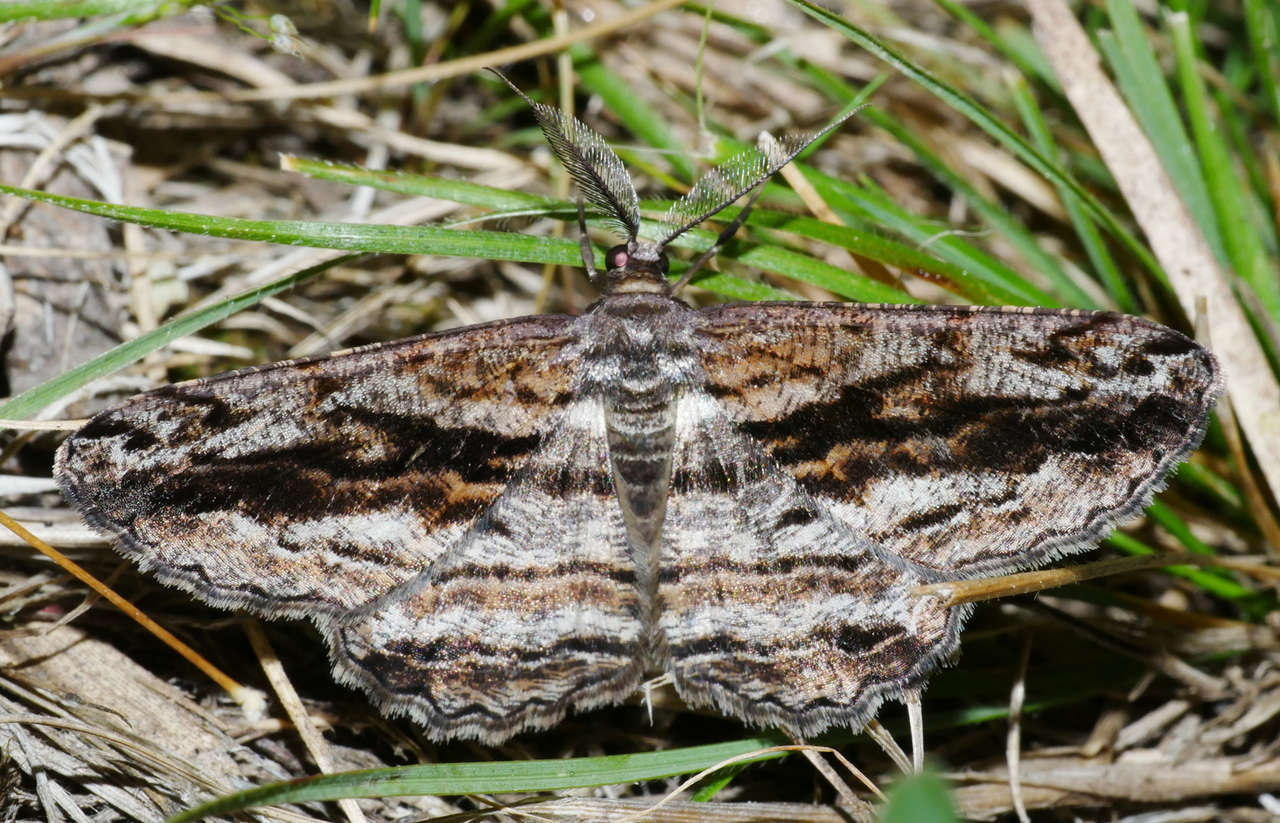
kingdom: Animalia
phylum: Arthropoda
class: Insecta
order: Lepidoptera
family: Geometridae
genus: Scioglyptis
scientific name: Scioglyptis chionomera
